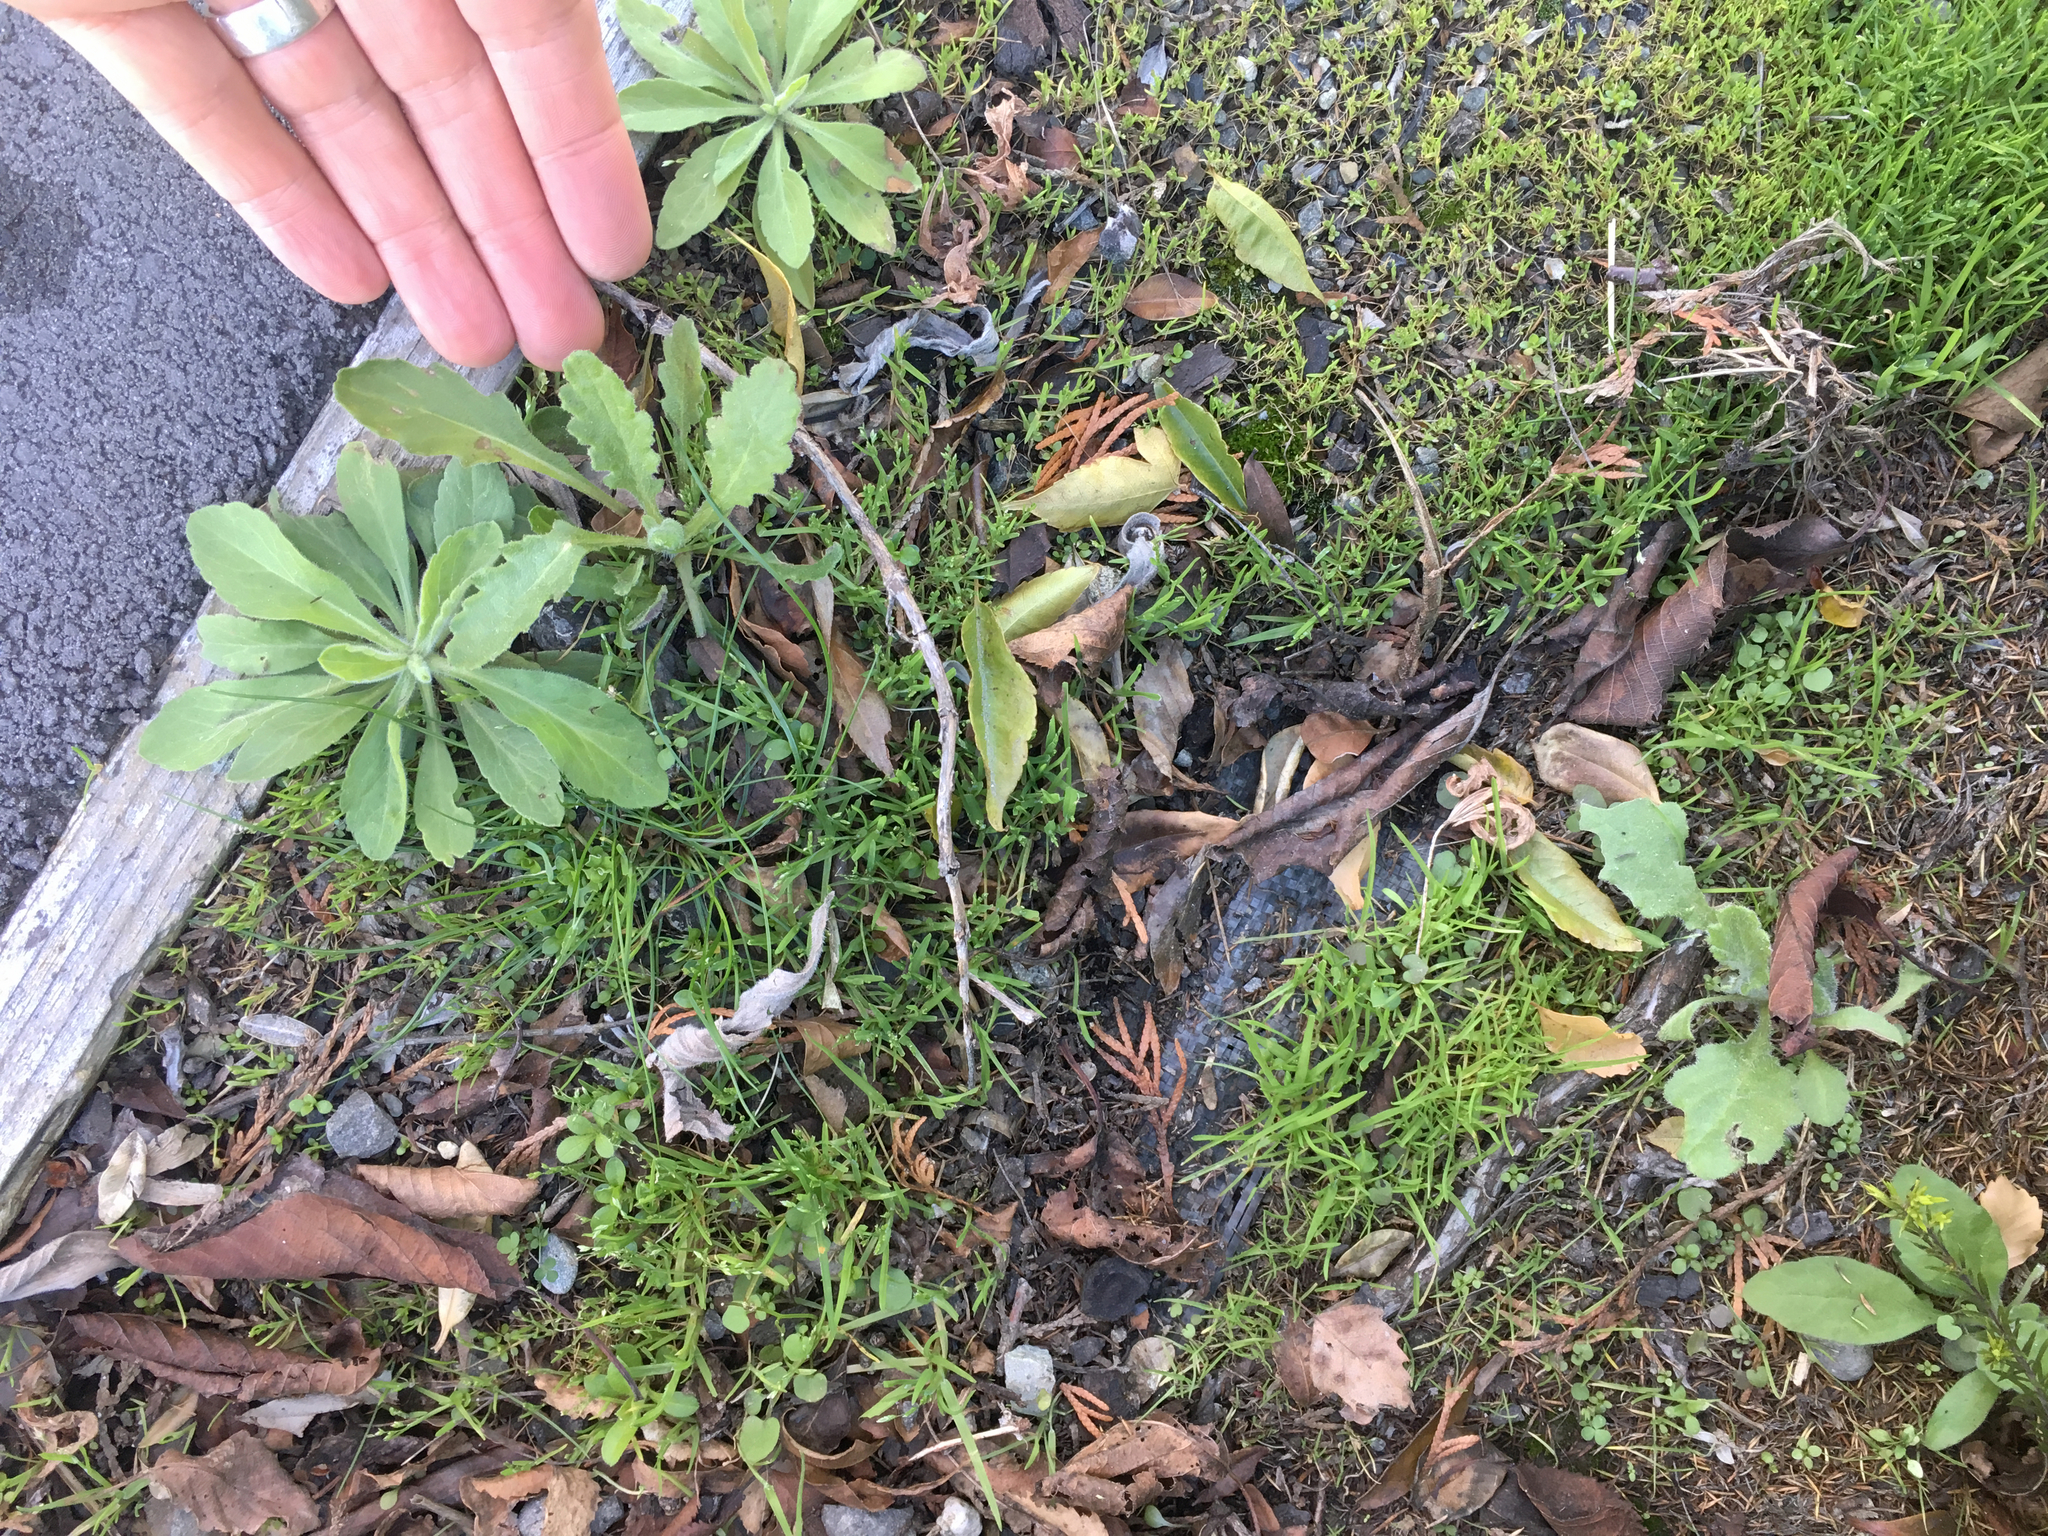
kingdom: Plantae
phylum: Tracheophyta
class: Magnoliopsida
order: Asterales
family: Asteraceae
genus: Senecio
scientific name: Senecio glomeratus
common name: Cutleaf burnweed
